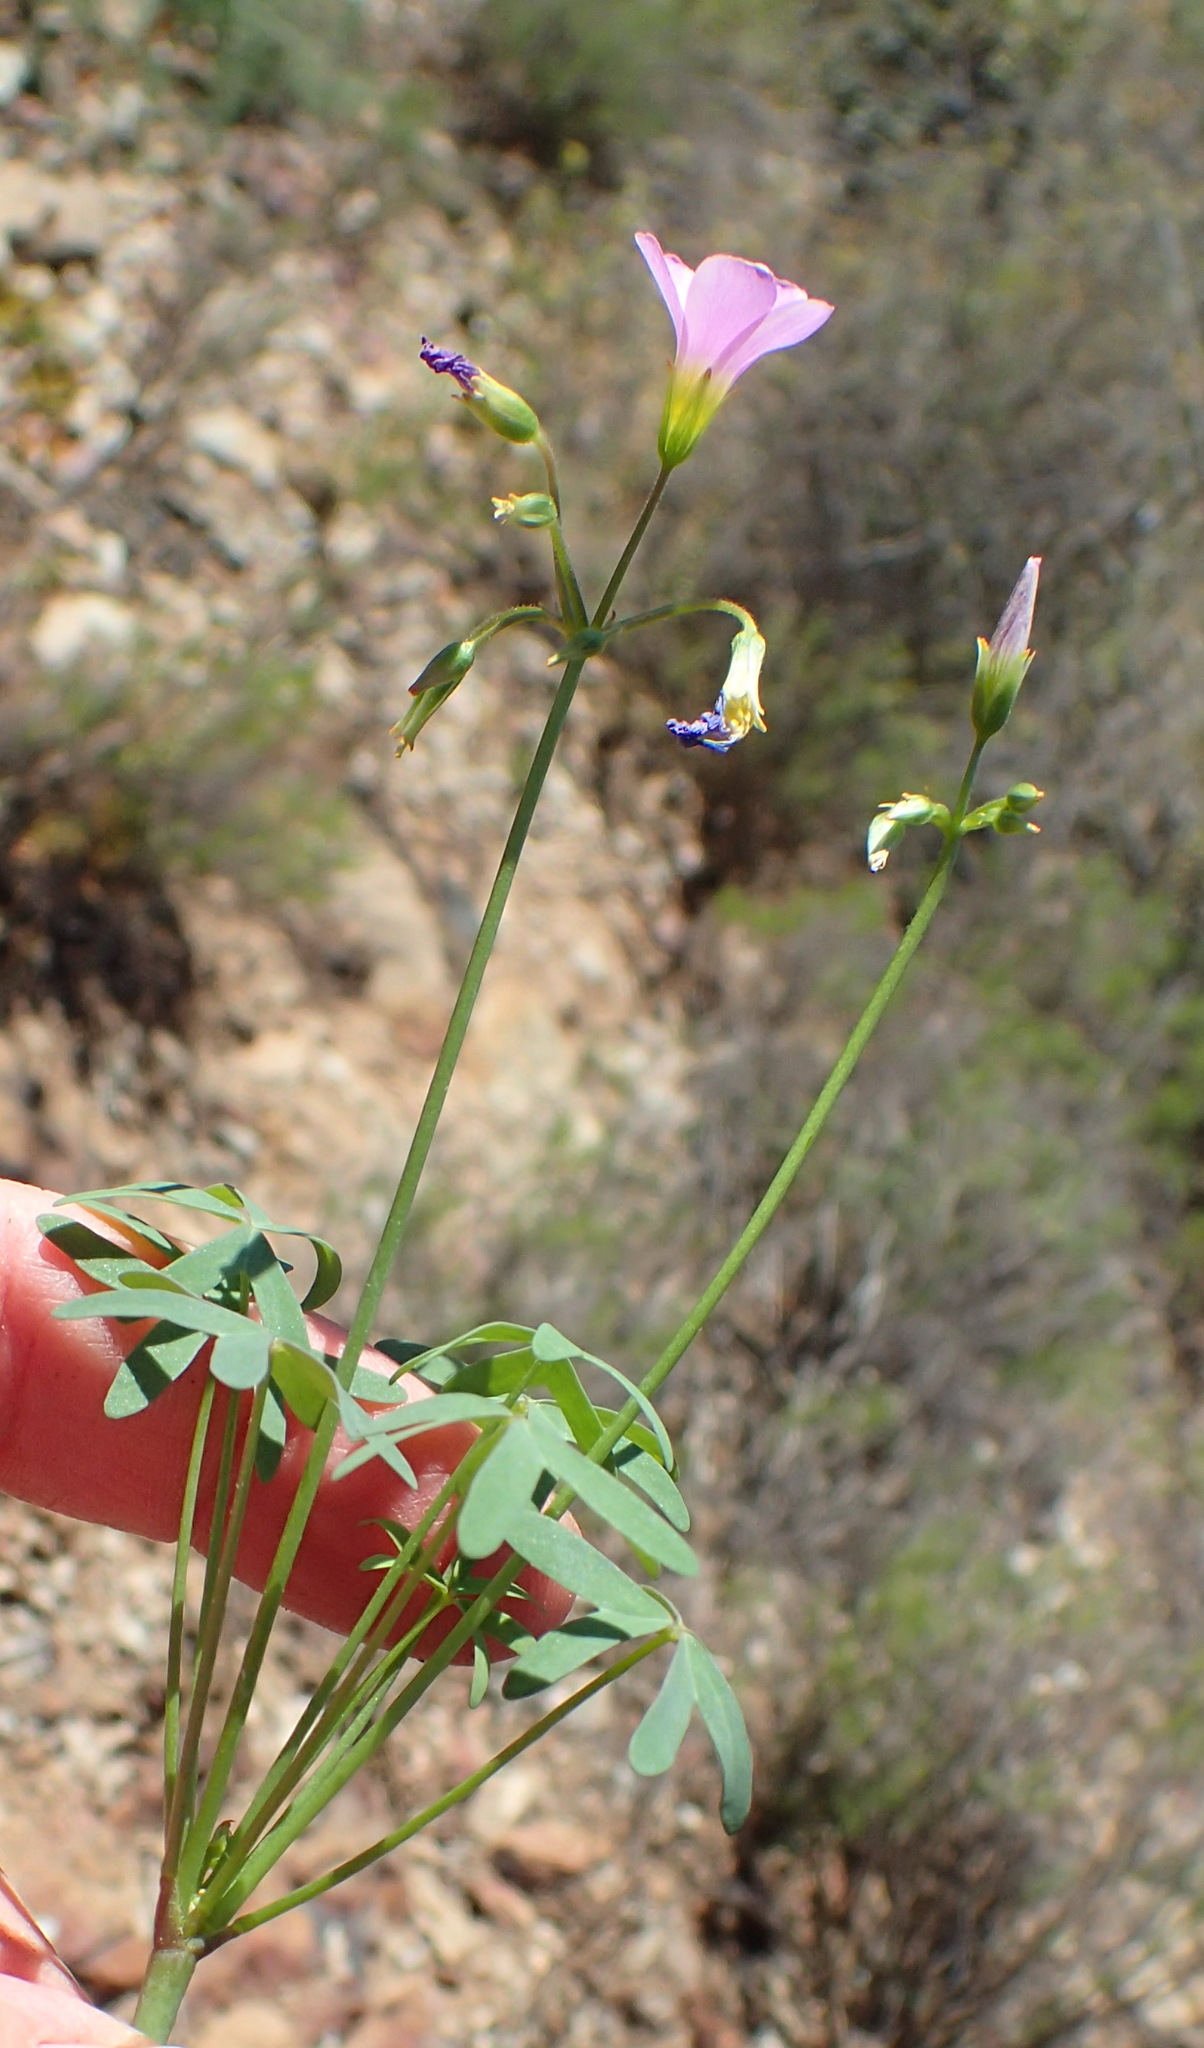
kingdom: Plantae
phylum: Tracheophyta
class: Magnoliopsida
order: Oxalidales
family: Oxalidaceae
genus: Oxalis
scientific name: Oxalis stellata
